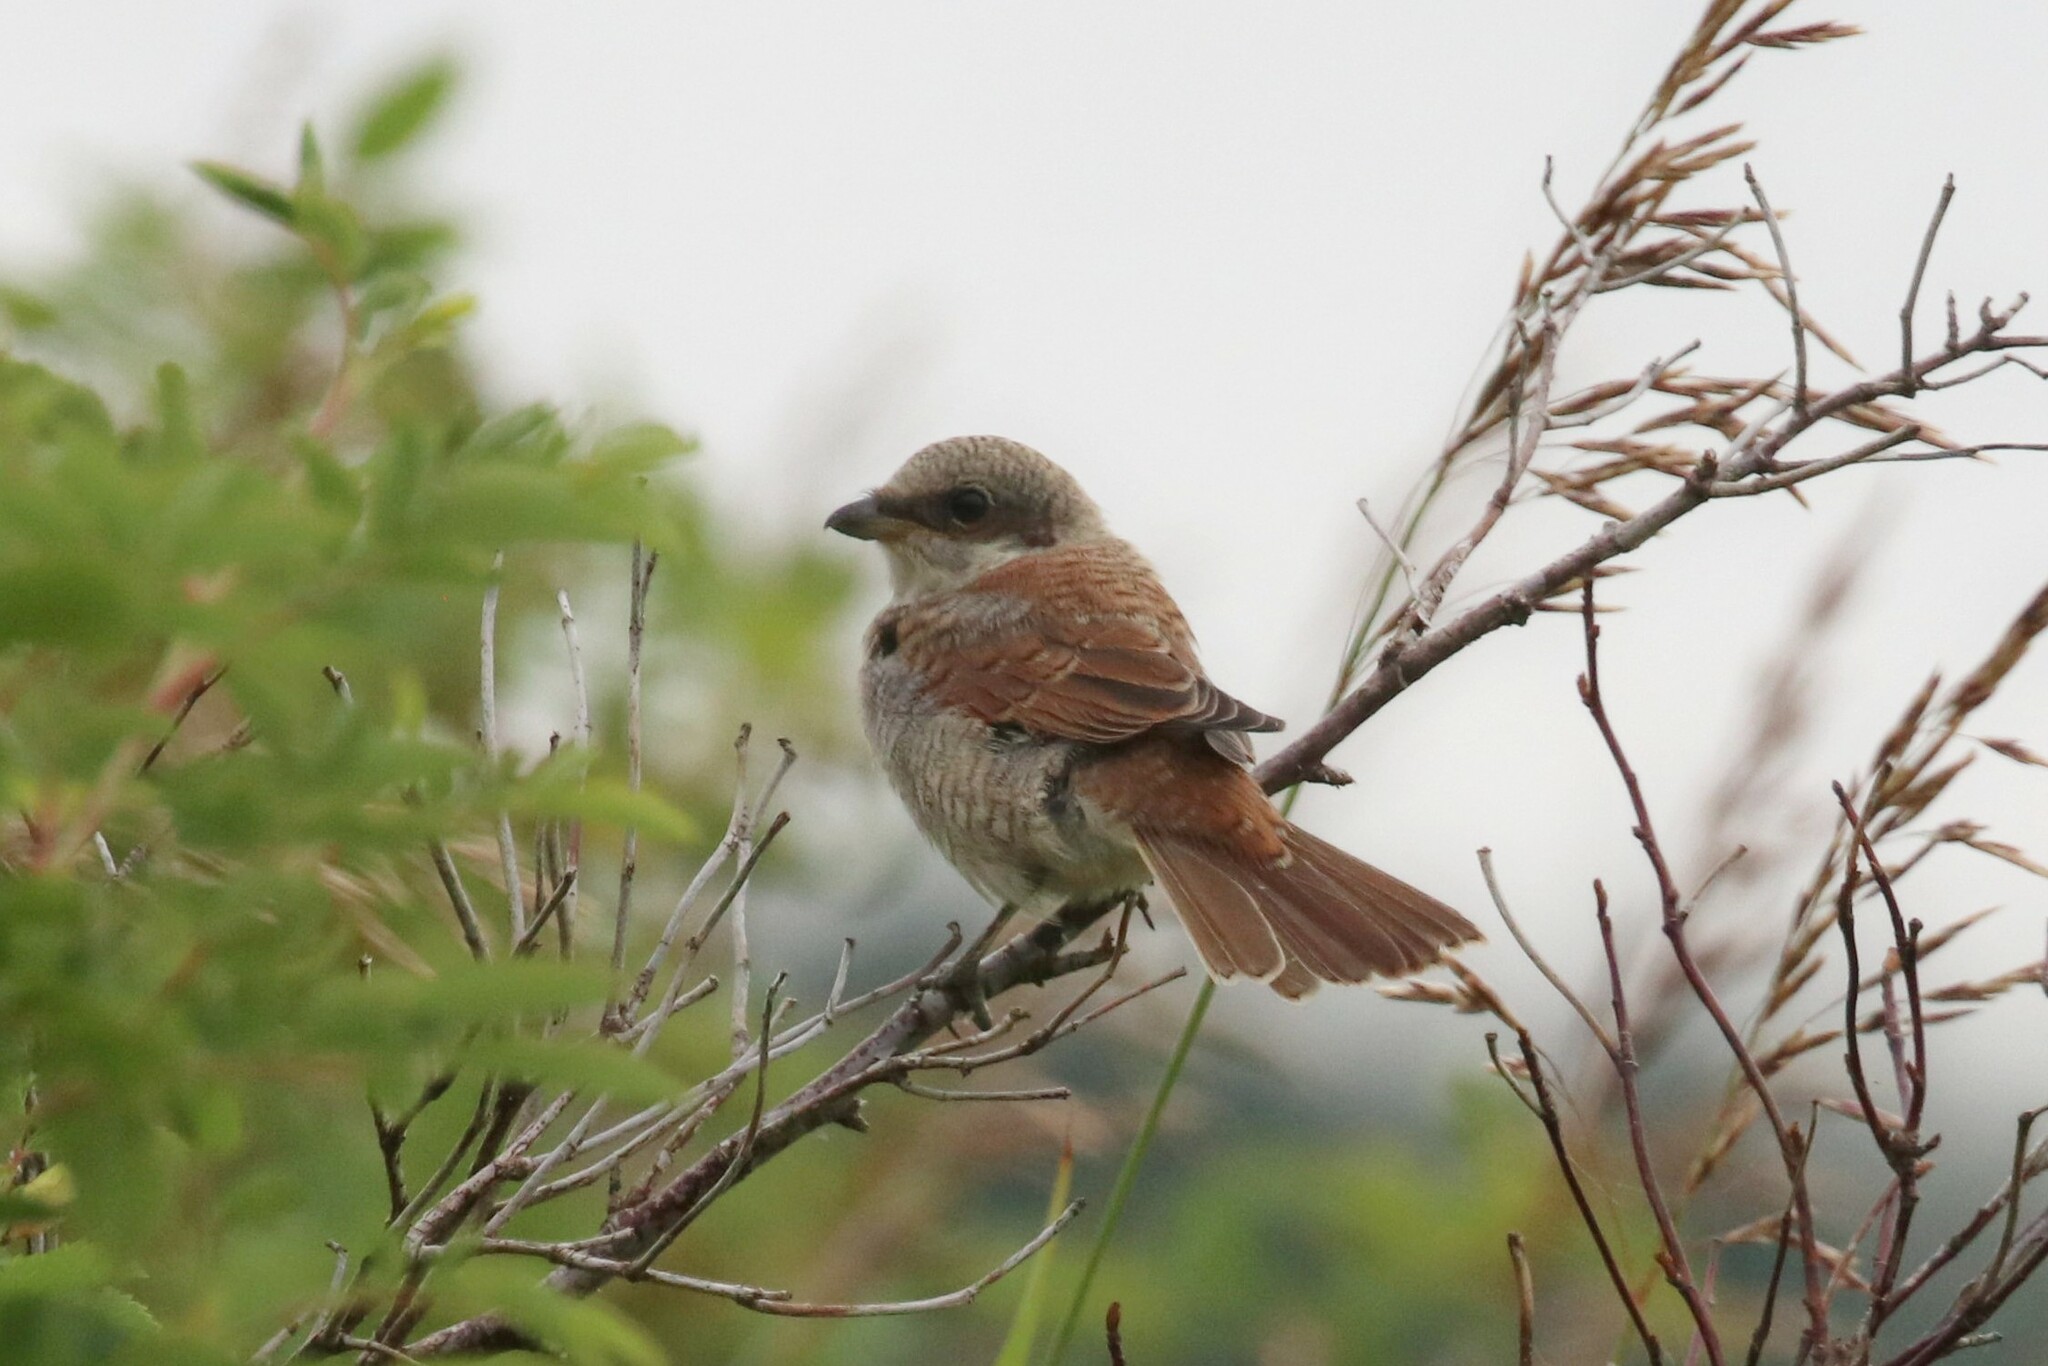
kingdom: Animalia
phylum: Chordata
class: Aves
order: Passeriformes
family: Laniidae
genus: Lanius
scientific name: Lanius collurio
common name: Red-backed shrike
